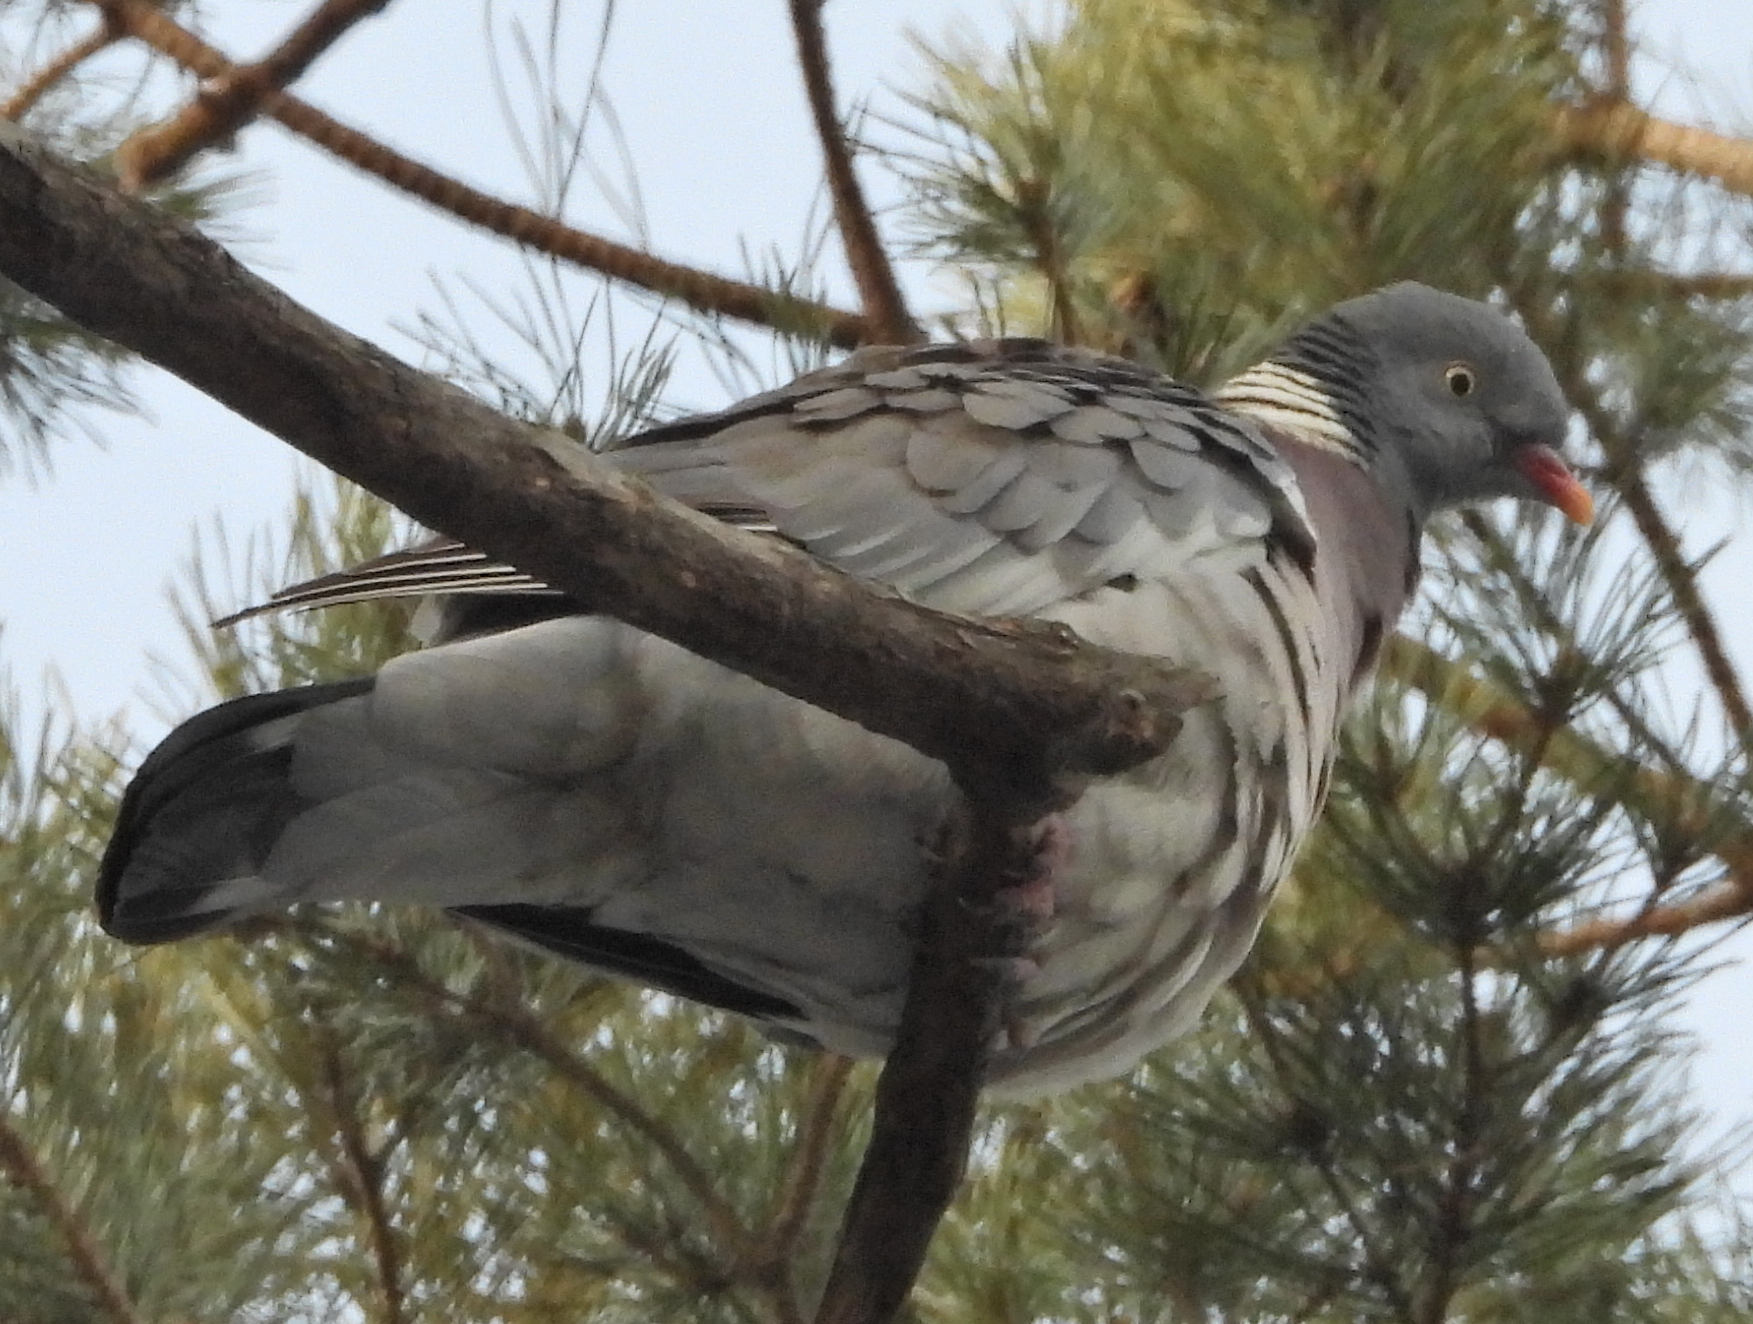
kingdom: Animalia
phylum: Chordata
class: Aves
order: Columbiformes
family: Columbidae
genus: Columba
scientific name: Columba palumbus
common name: Common wood pigeon
